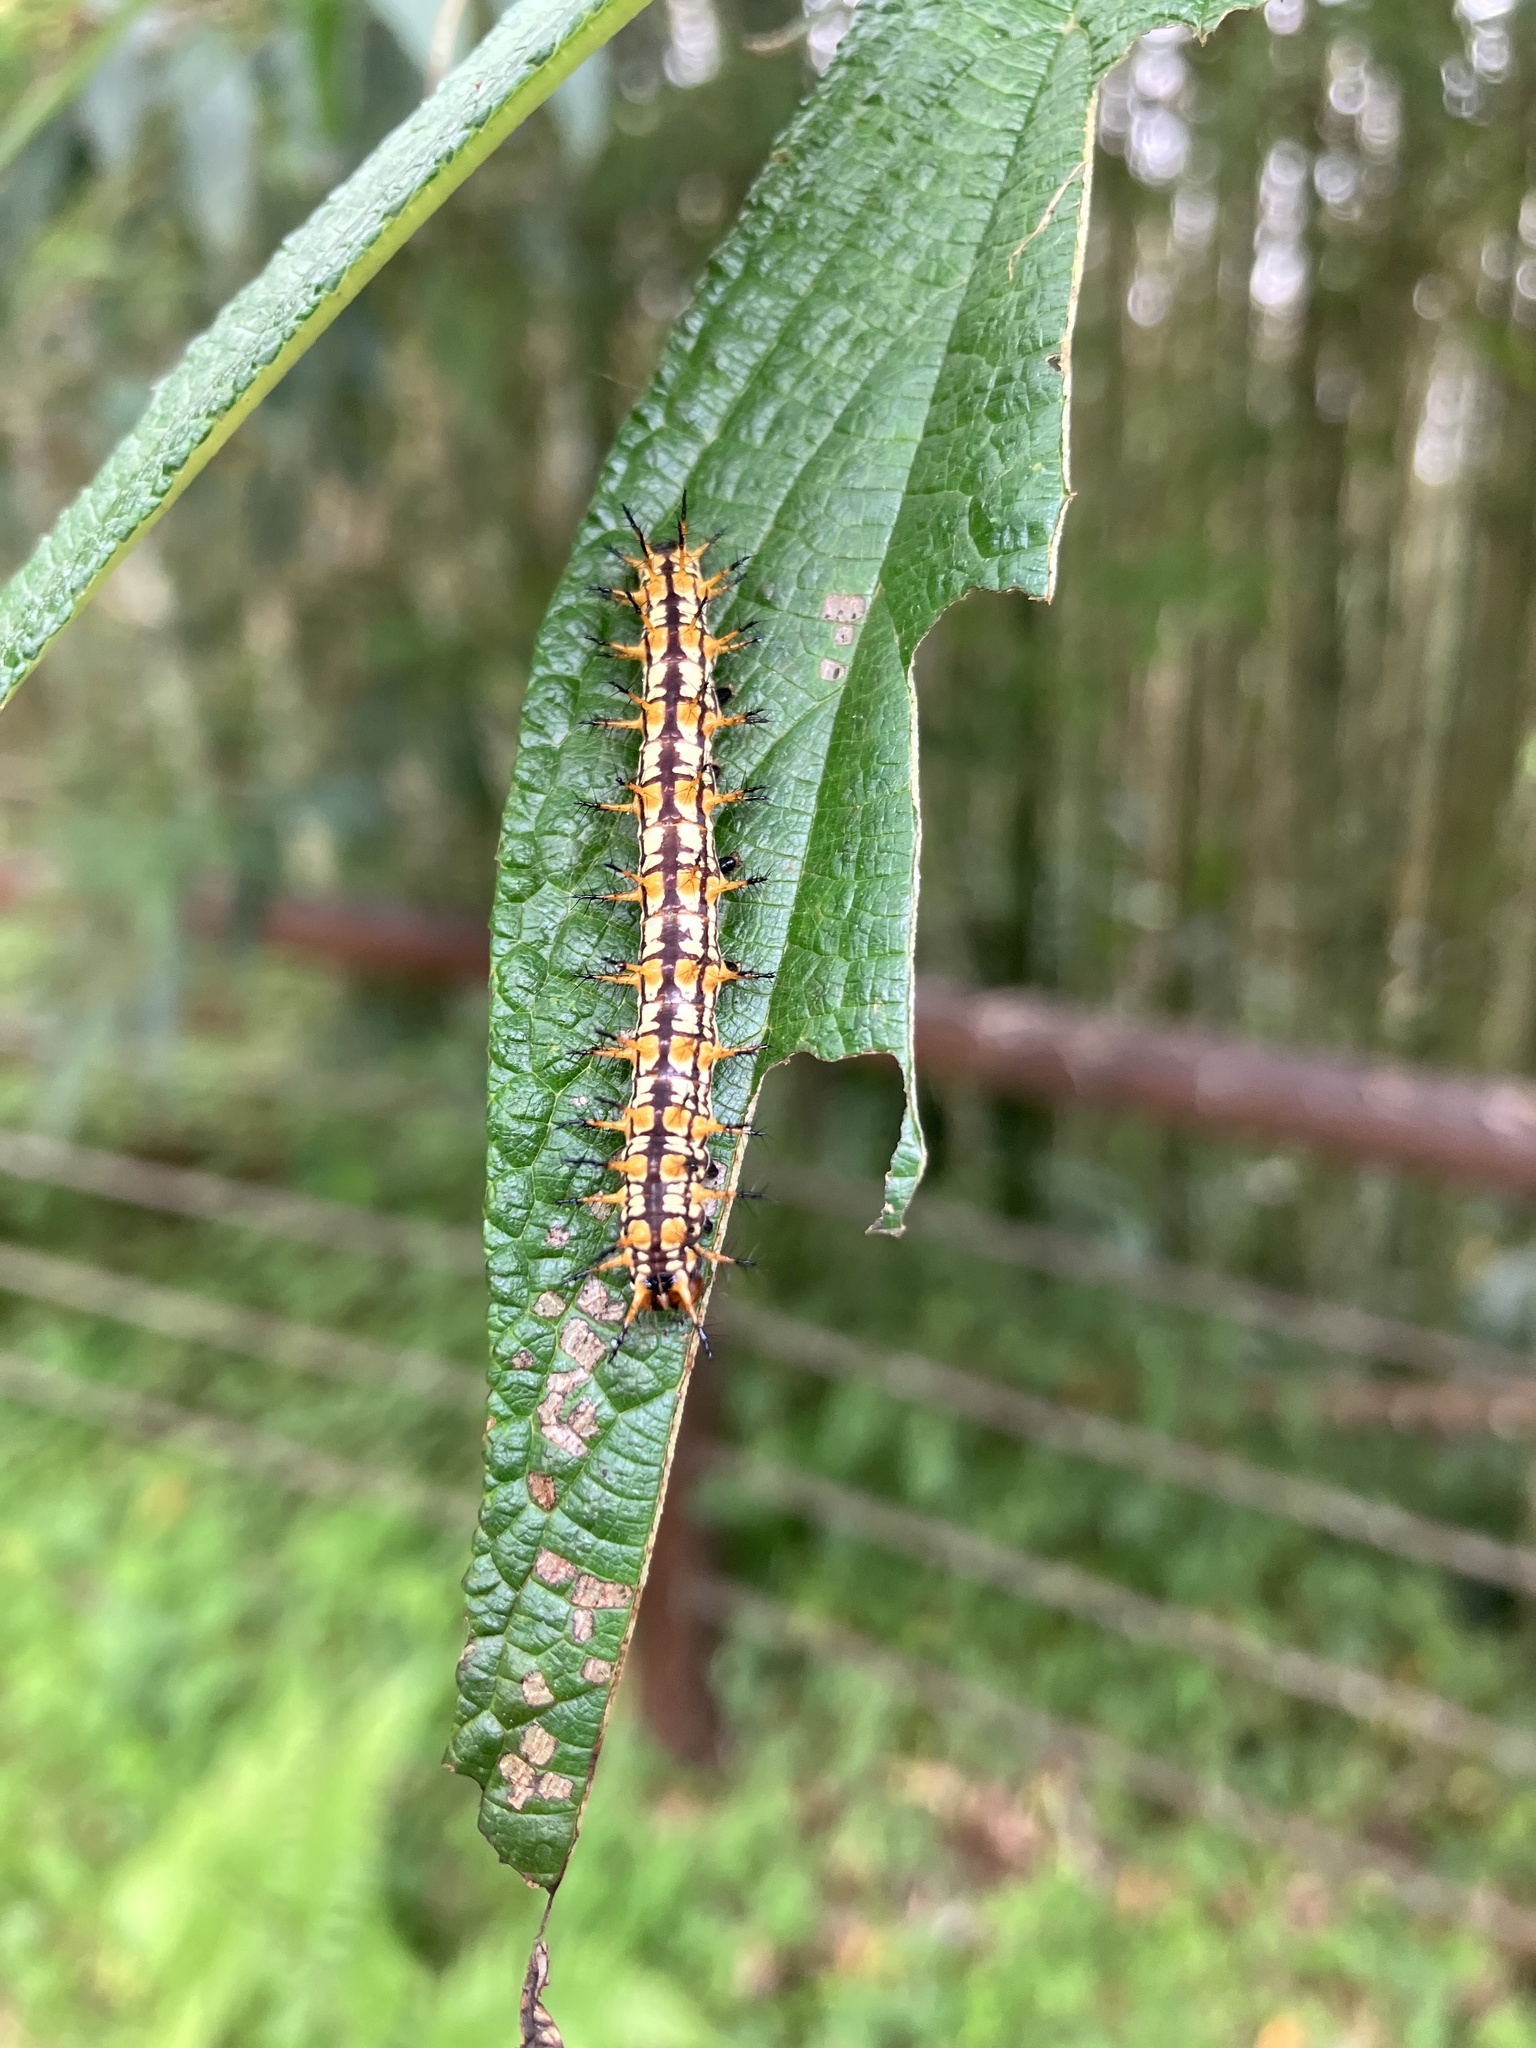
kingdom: Animalia
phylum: Arthropoda
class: Insecta
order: Lepidoptera
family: Nymphalidae
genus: Acraea
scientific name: Acraea Telchinia issoria
